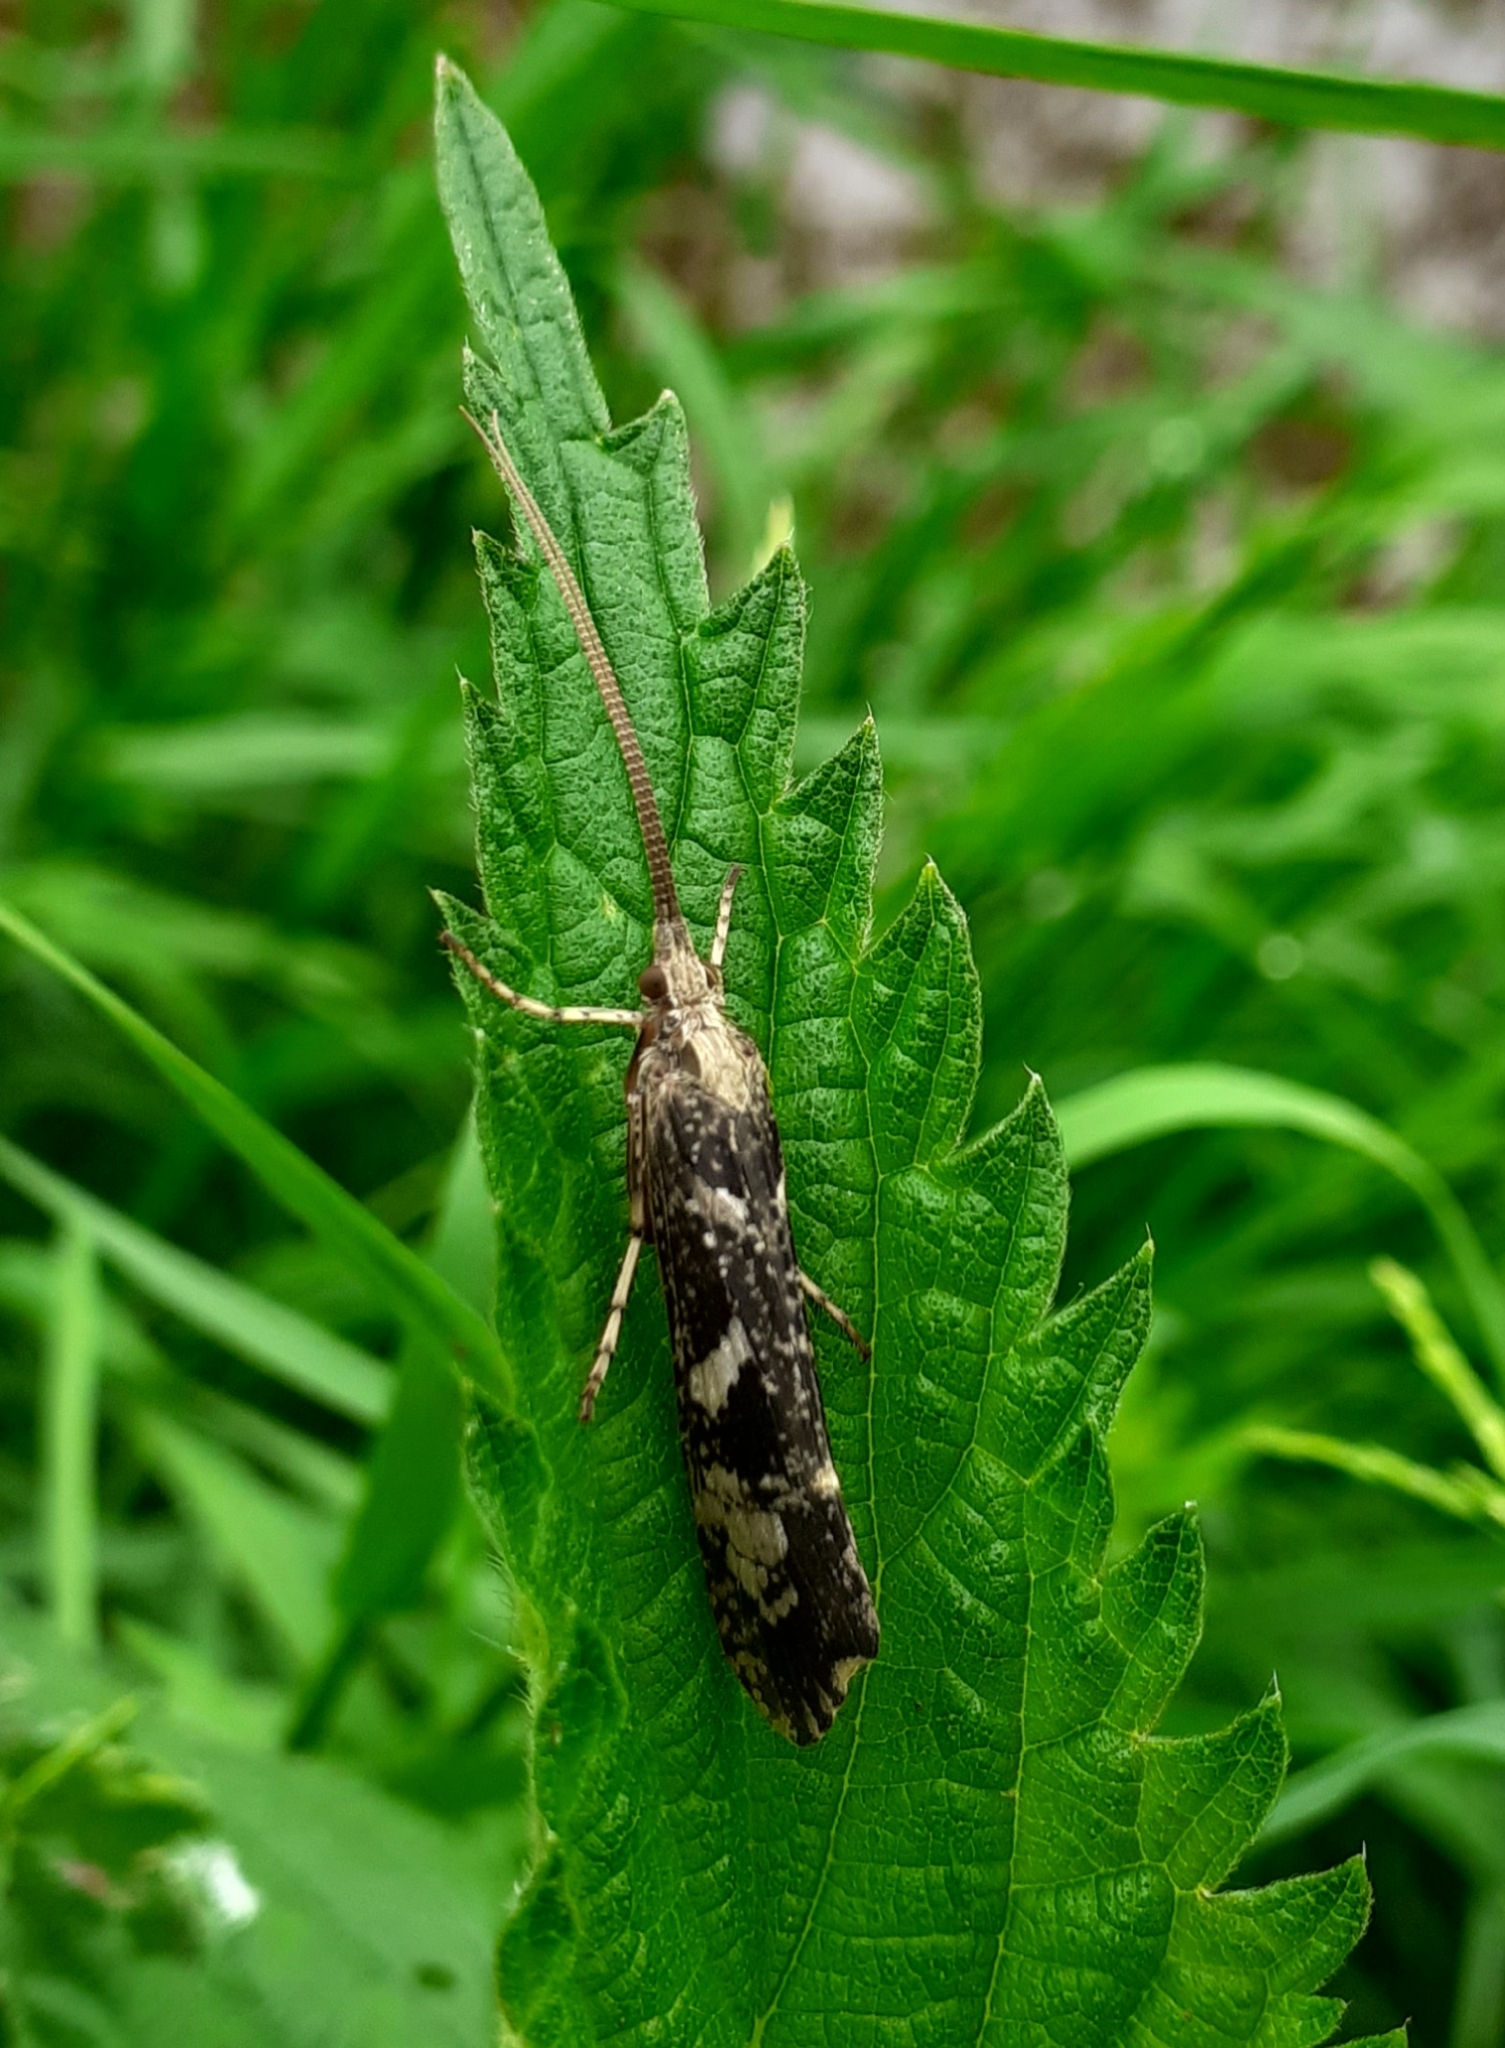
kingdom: Animalia
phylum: Arthropoda
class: Insecta
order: Trichoptera
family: Limnephilidae
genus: Glyphotaelius
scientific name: Glyphotaelius pellucidus
